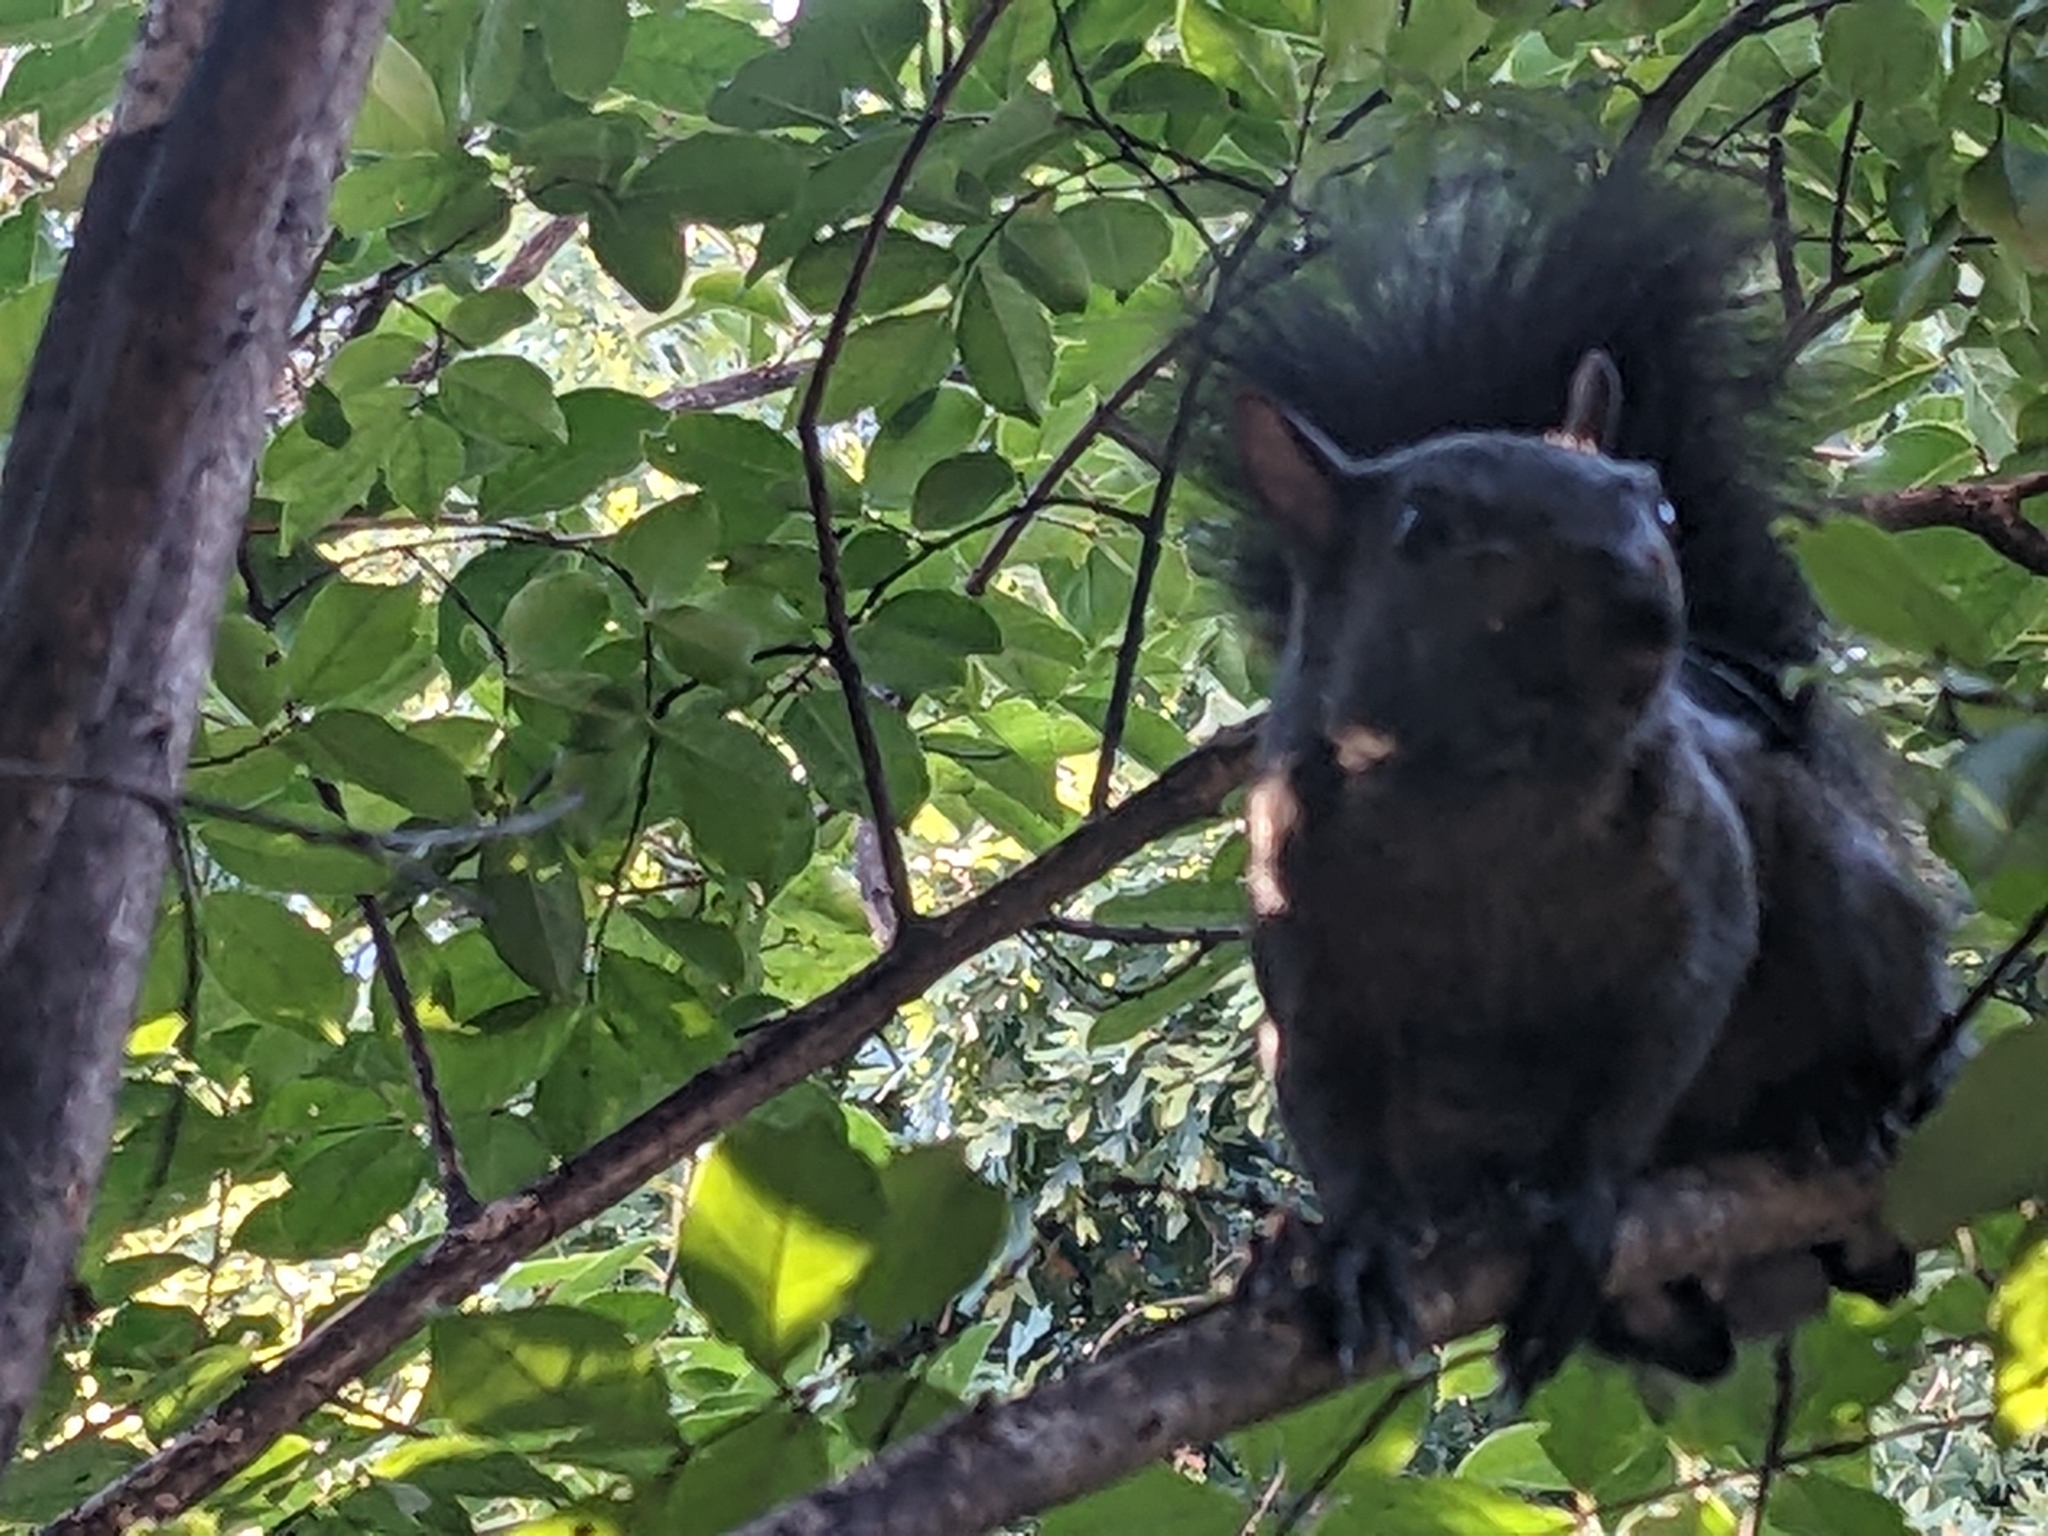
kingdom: Animalia
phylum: Chordata
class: Mammalia
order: Rodentia
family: Sciuridae
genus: Sciurus
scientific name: Sciurus carolinensis
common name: Eastern gray squirrel
